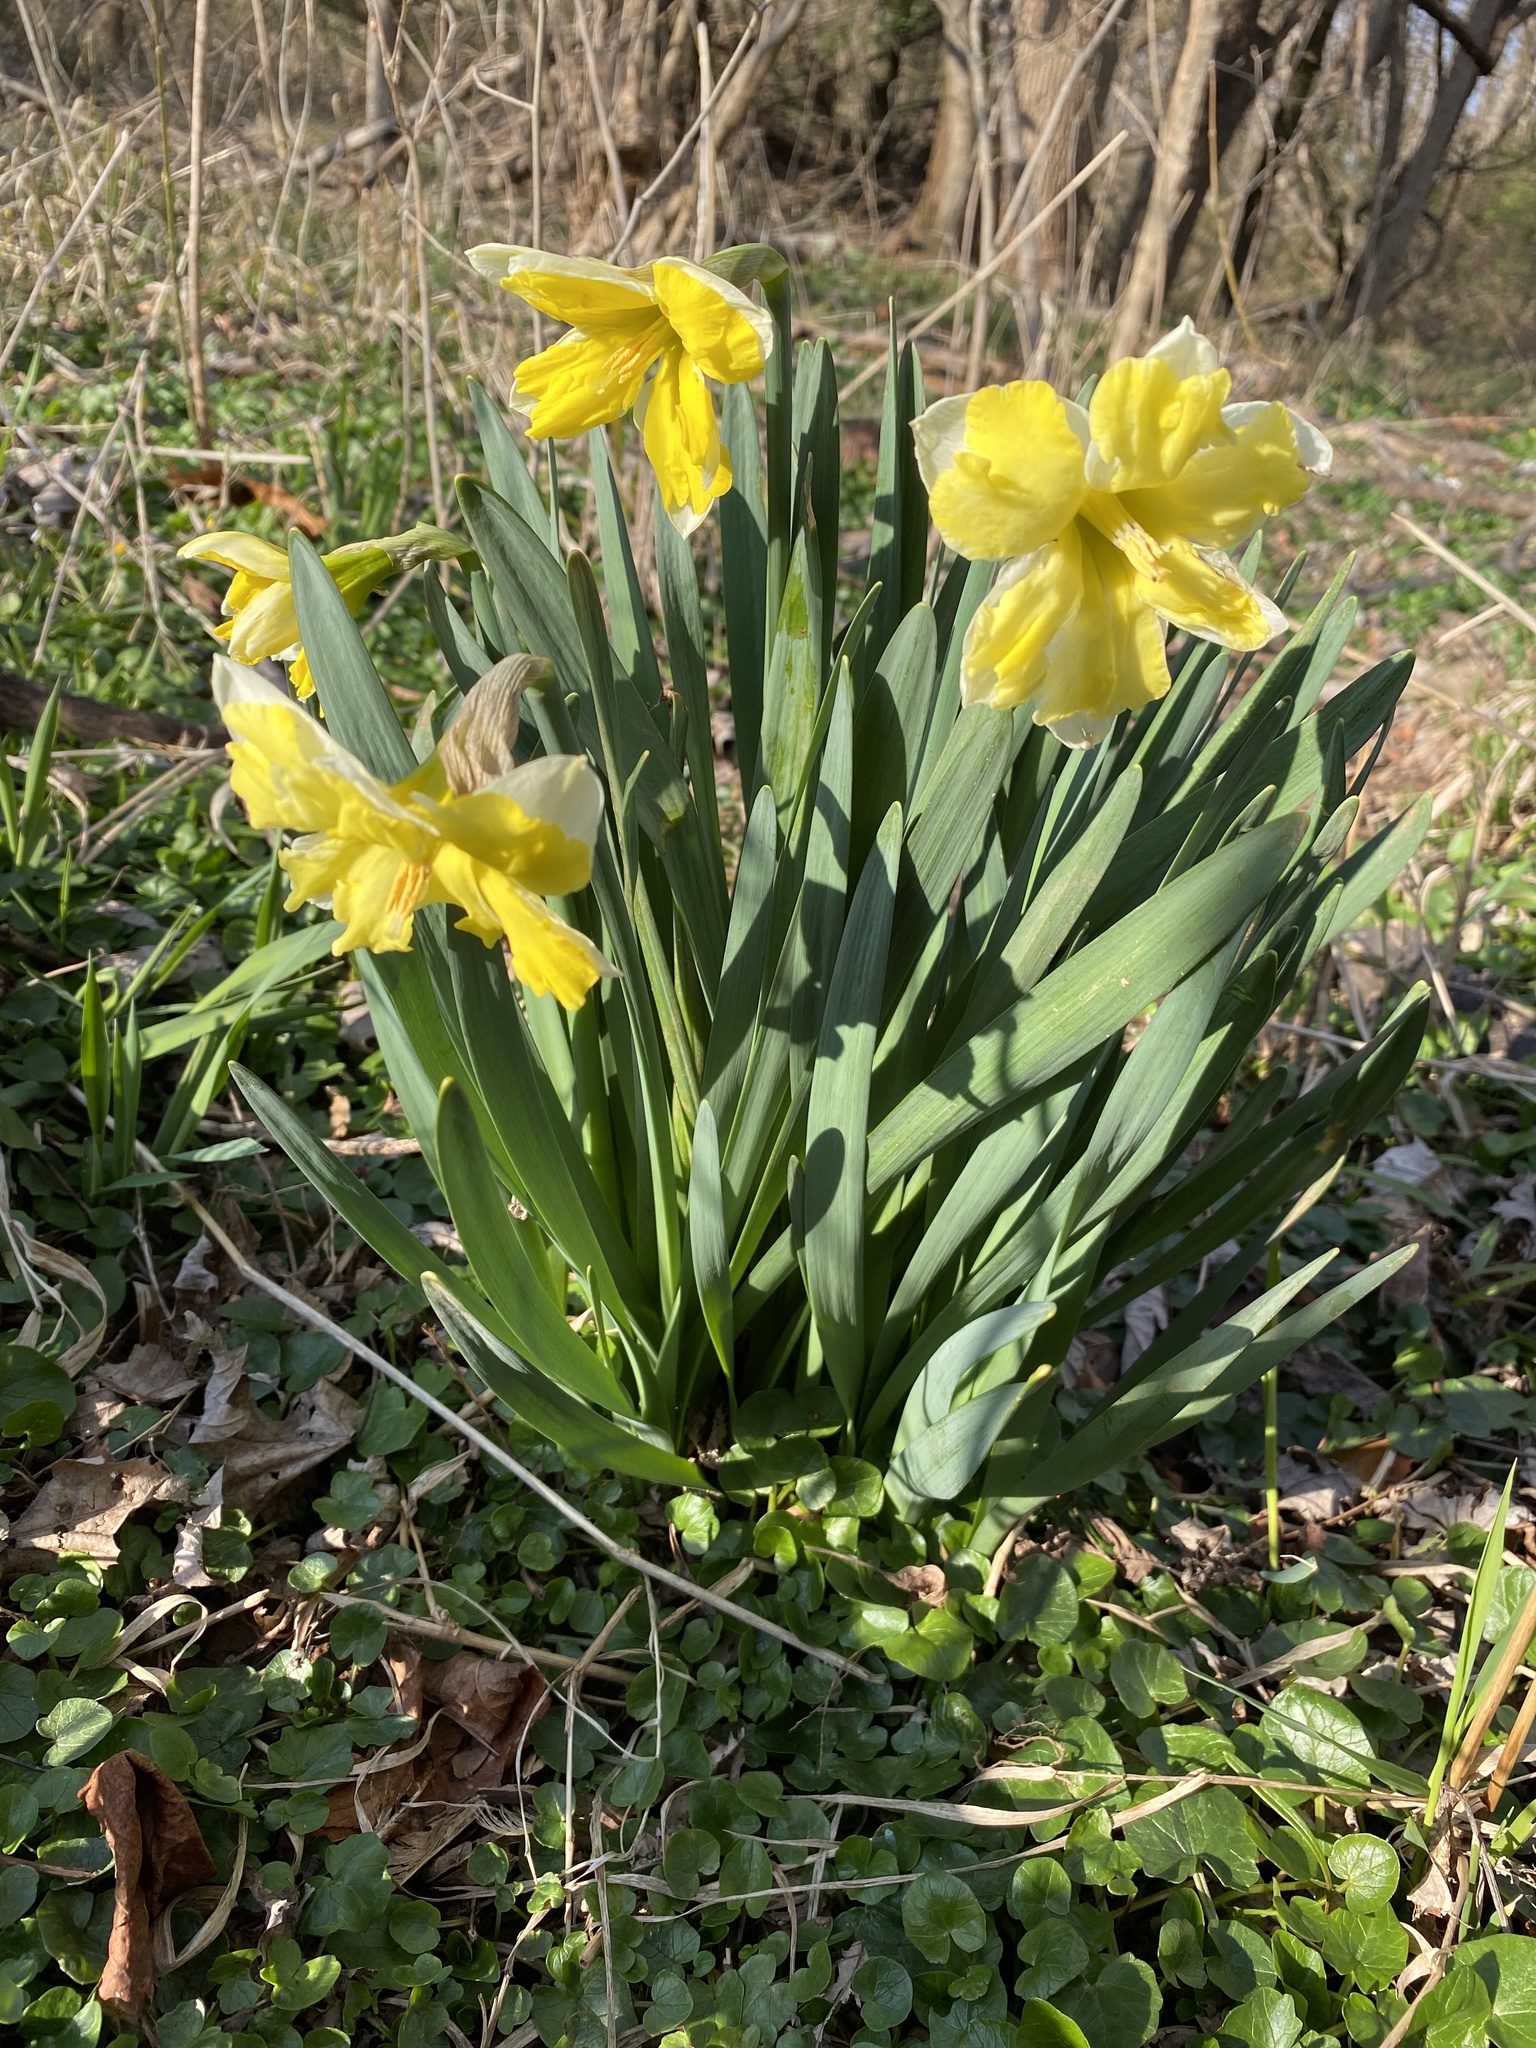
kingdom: Plantae
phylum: Tracheophyta
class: Liliopsida
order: Asparagales
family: Amaryllidaceae
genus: Narcissus
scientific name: Narcissus
